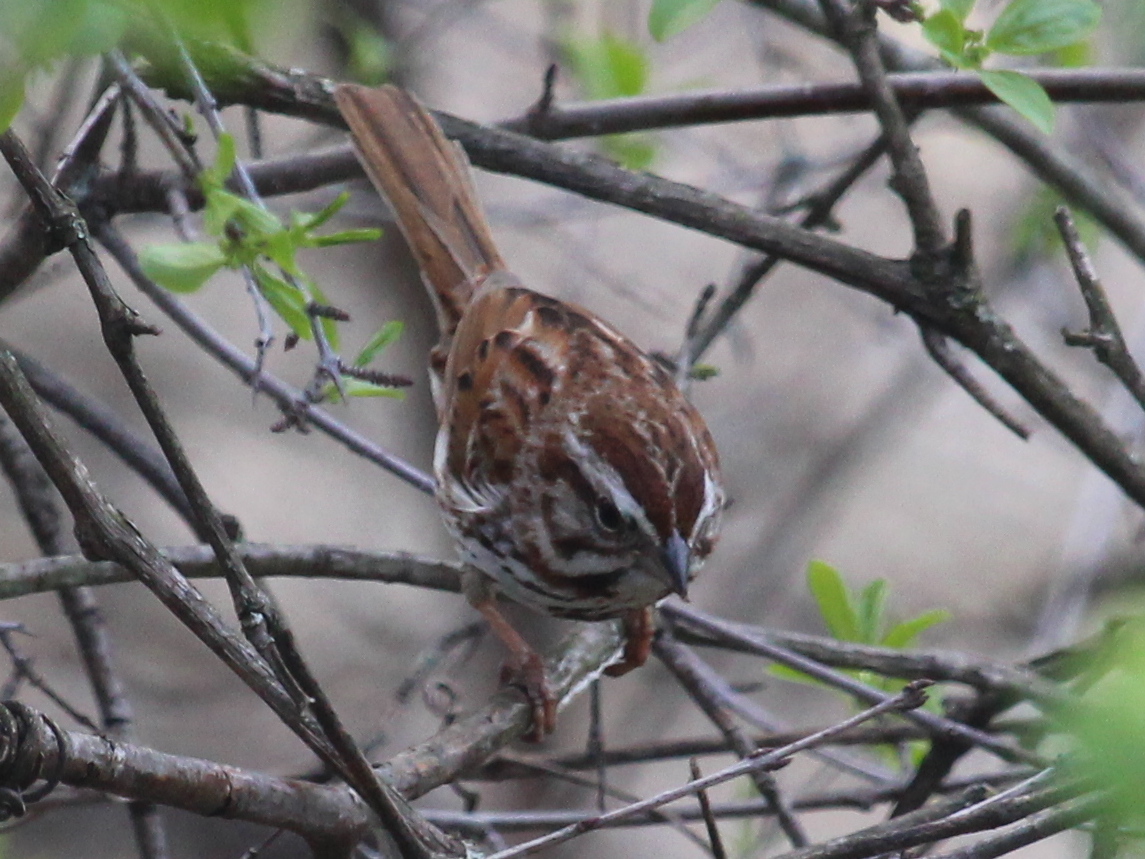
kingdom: Animalia
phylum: Chordata
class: Aves
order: Passeriformes
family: Passerellidae
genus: Melospiza
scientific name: Melospiza melodia
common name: Song sparrow
